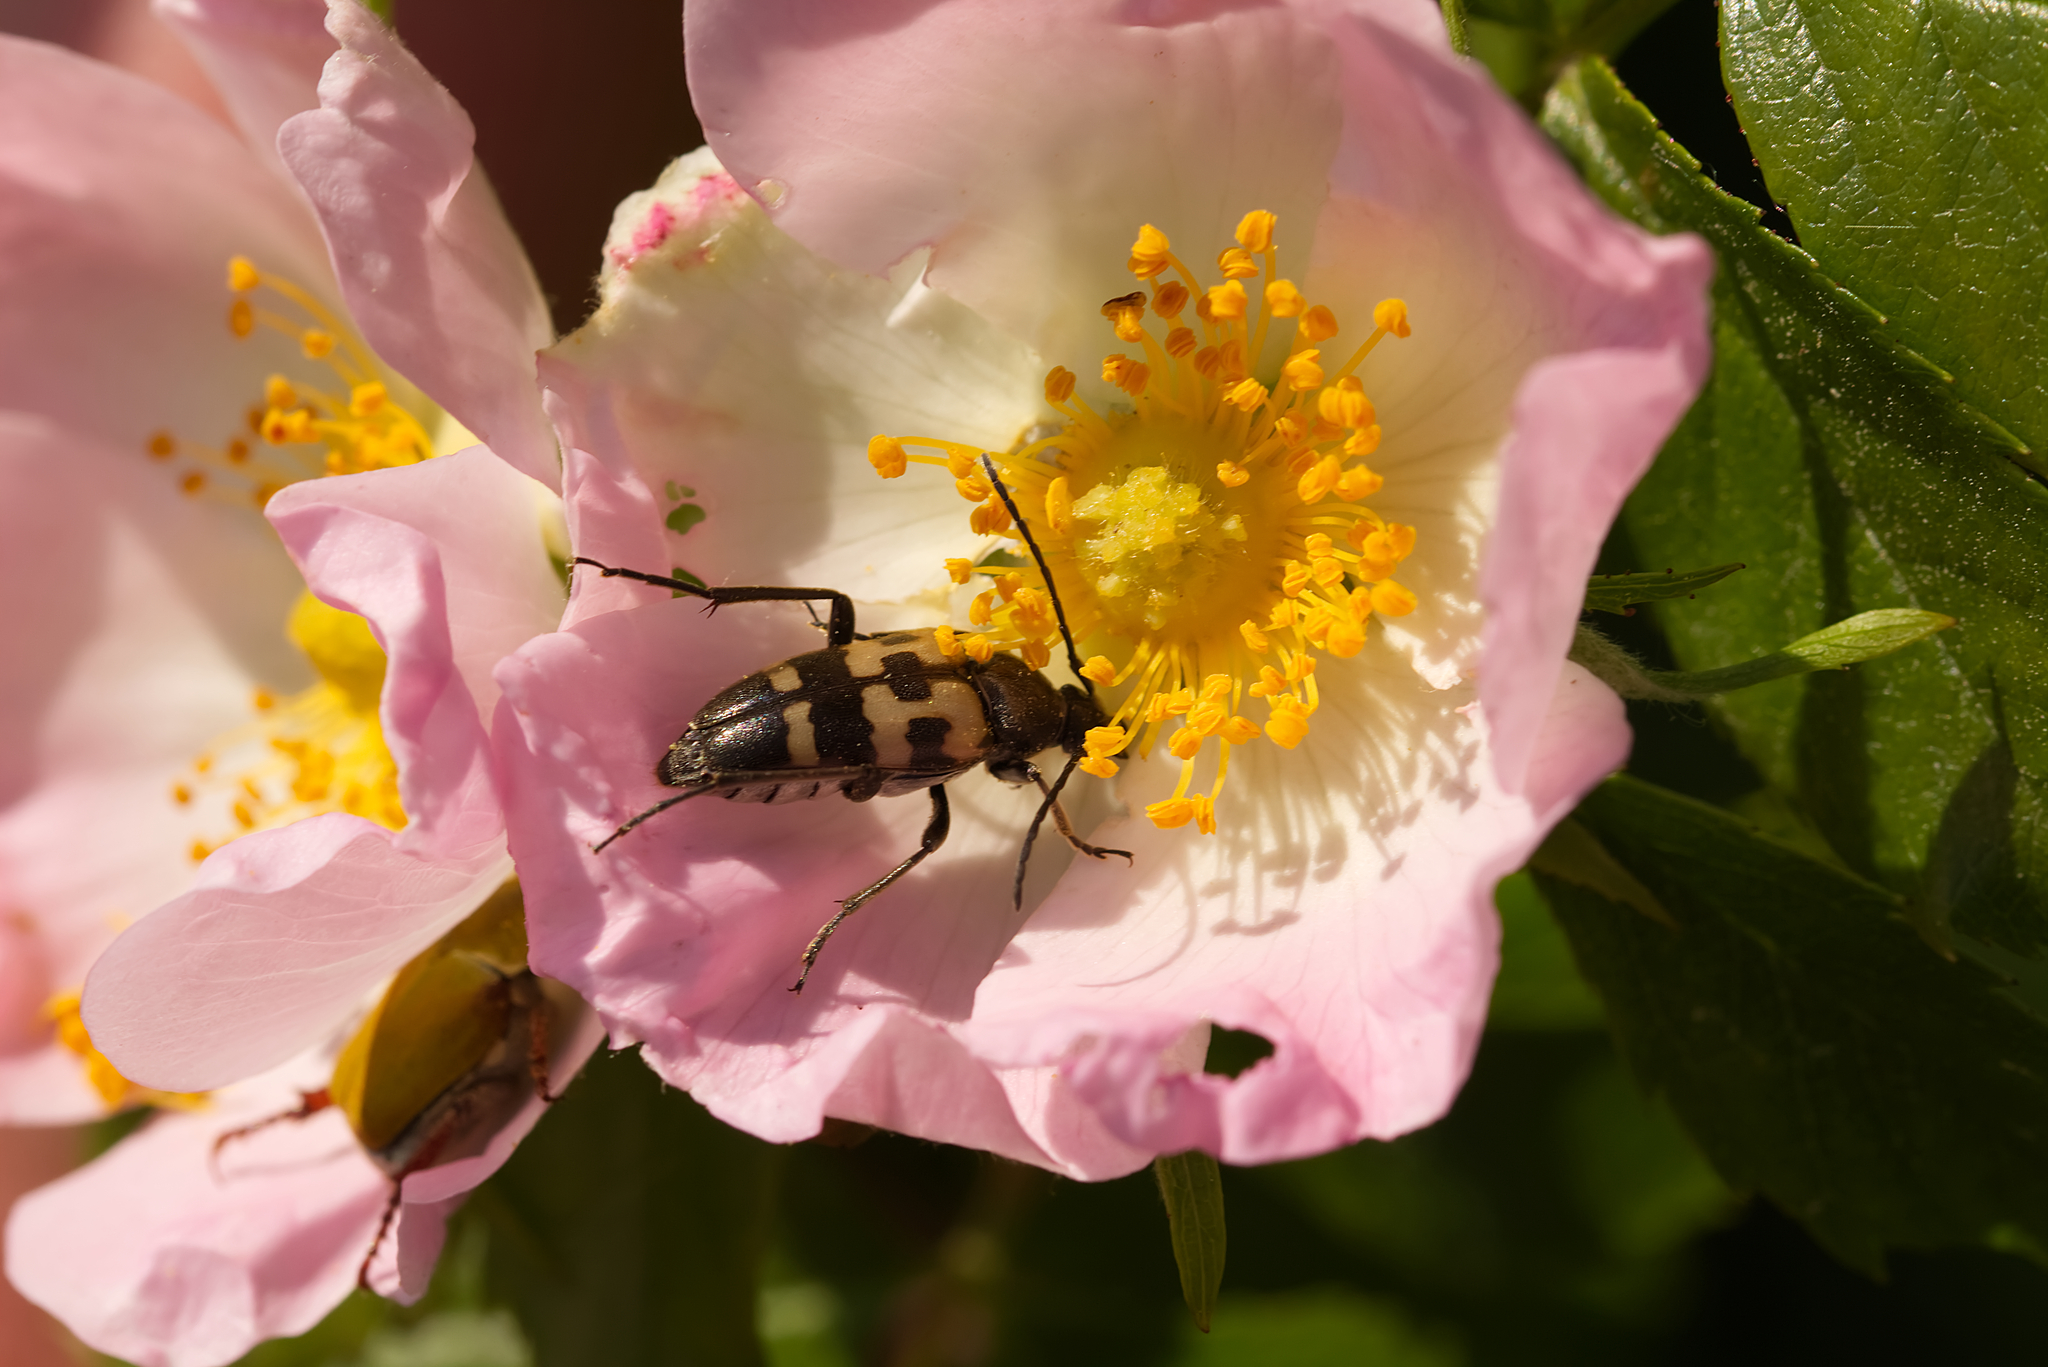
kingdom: Animalia
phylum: Arthropoda
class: Insecta
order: Coleoptera
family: Cerambycidae
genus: Pachytodes
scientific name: Pachytodes
